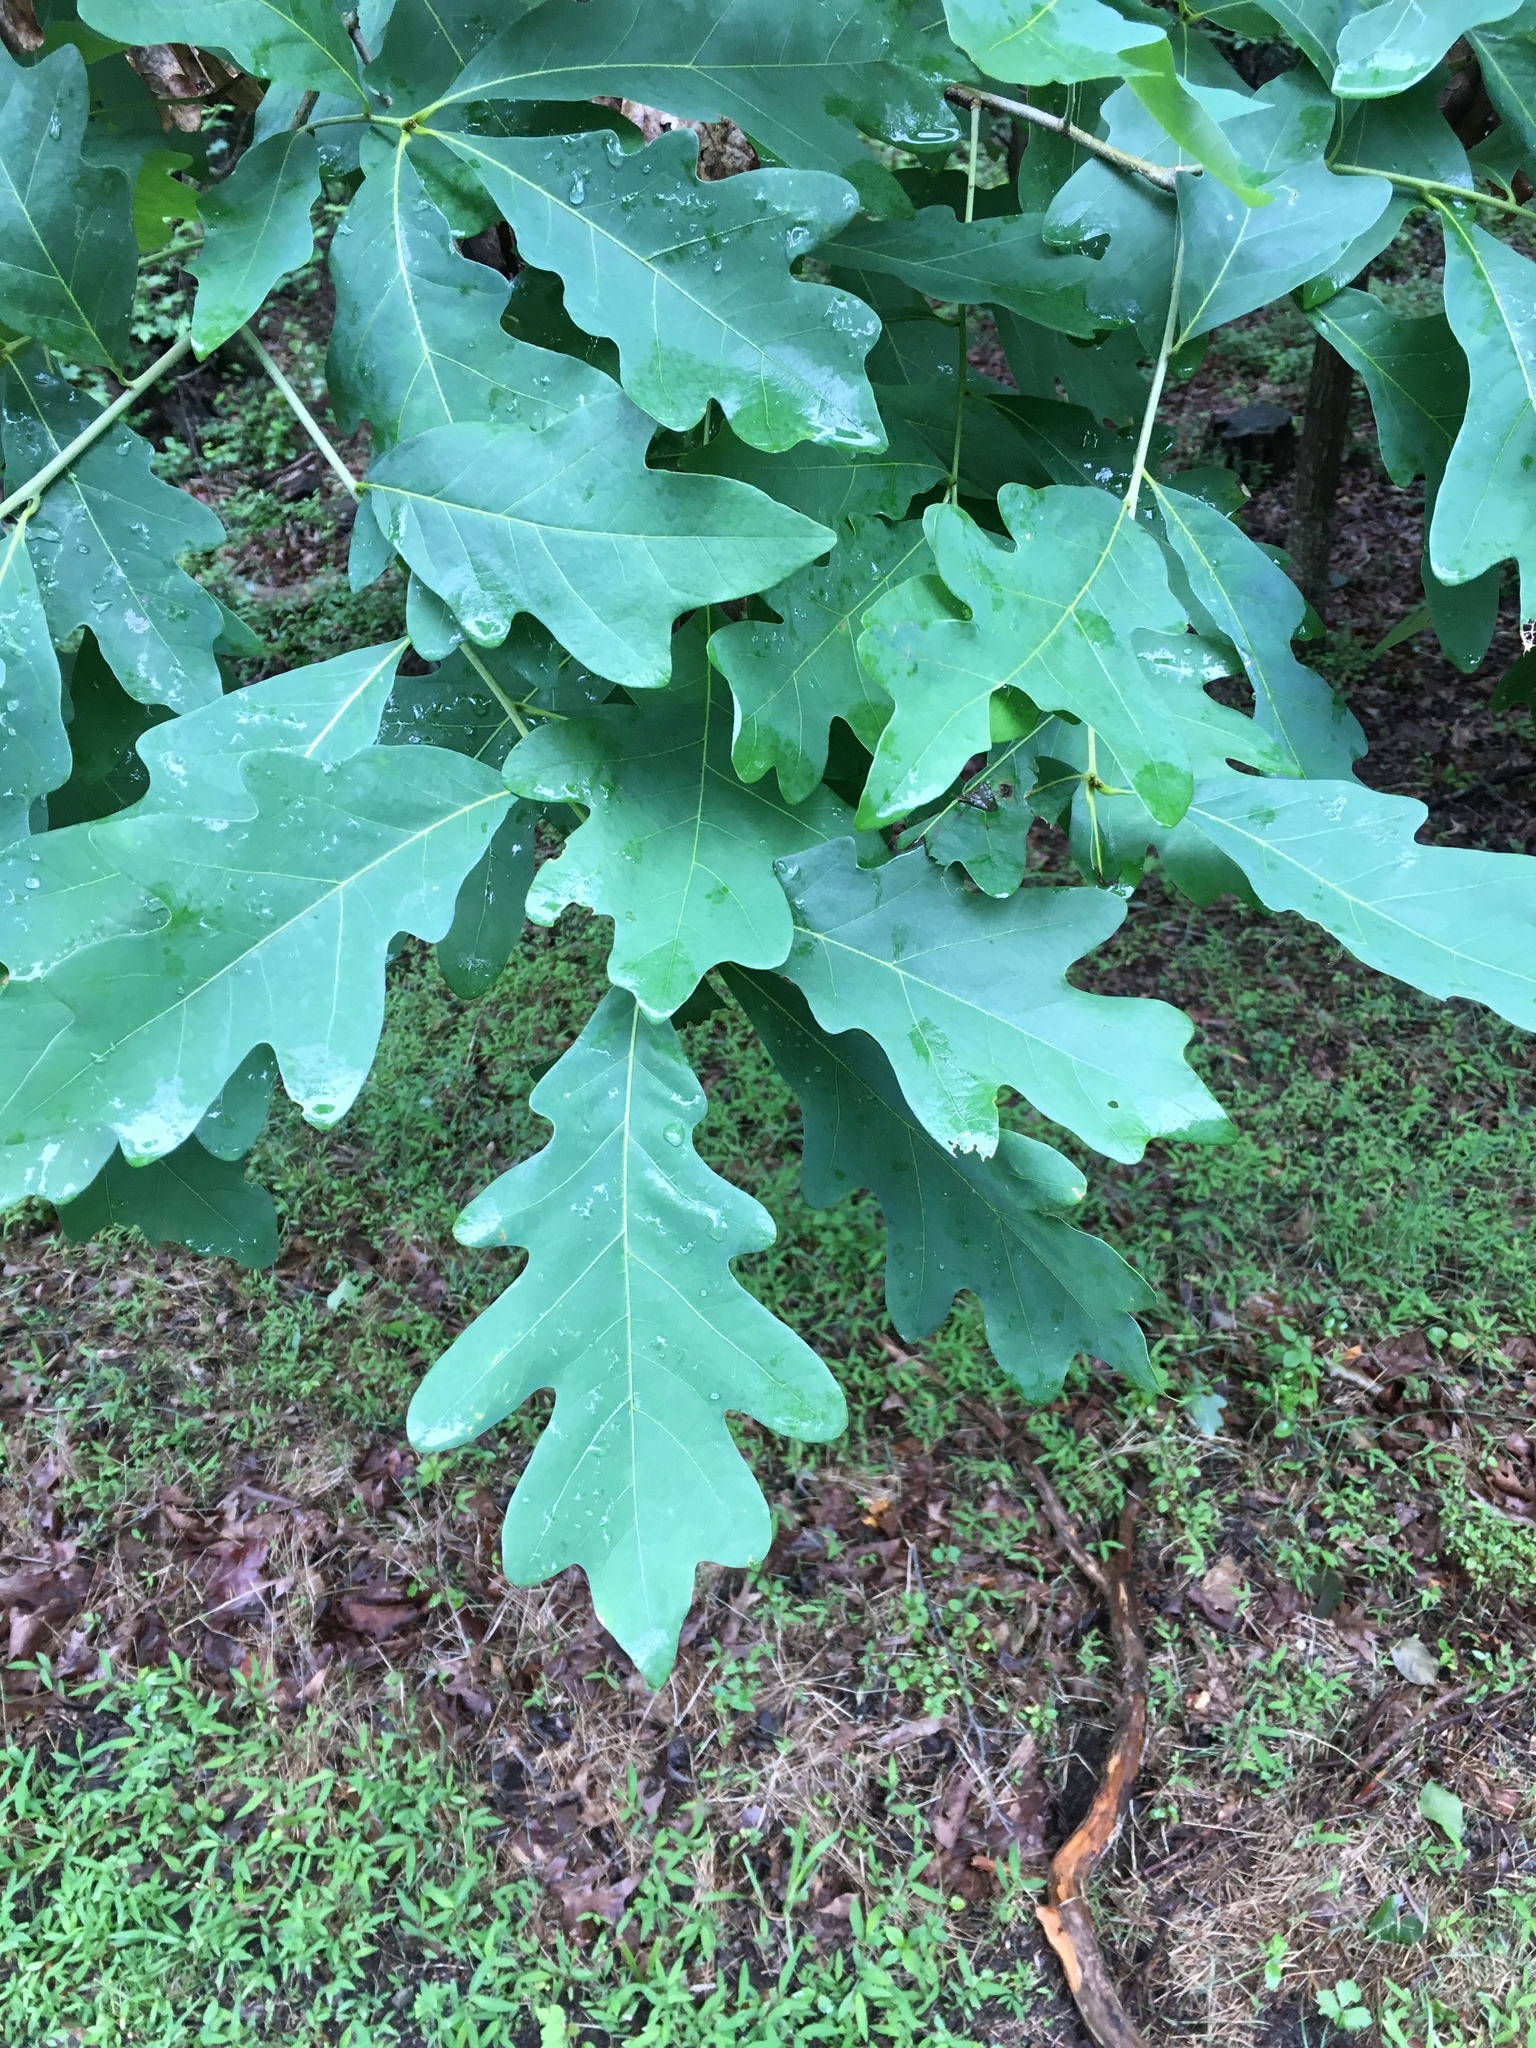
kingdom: Plantae
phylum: Tracheophyta
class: Magnoliopsida
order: Fagales
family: Fagaceae
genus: Quercus
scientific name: Quercus alba
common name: White oak
